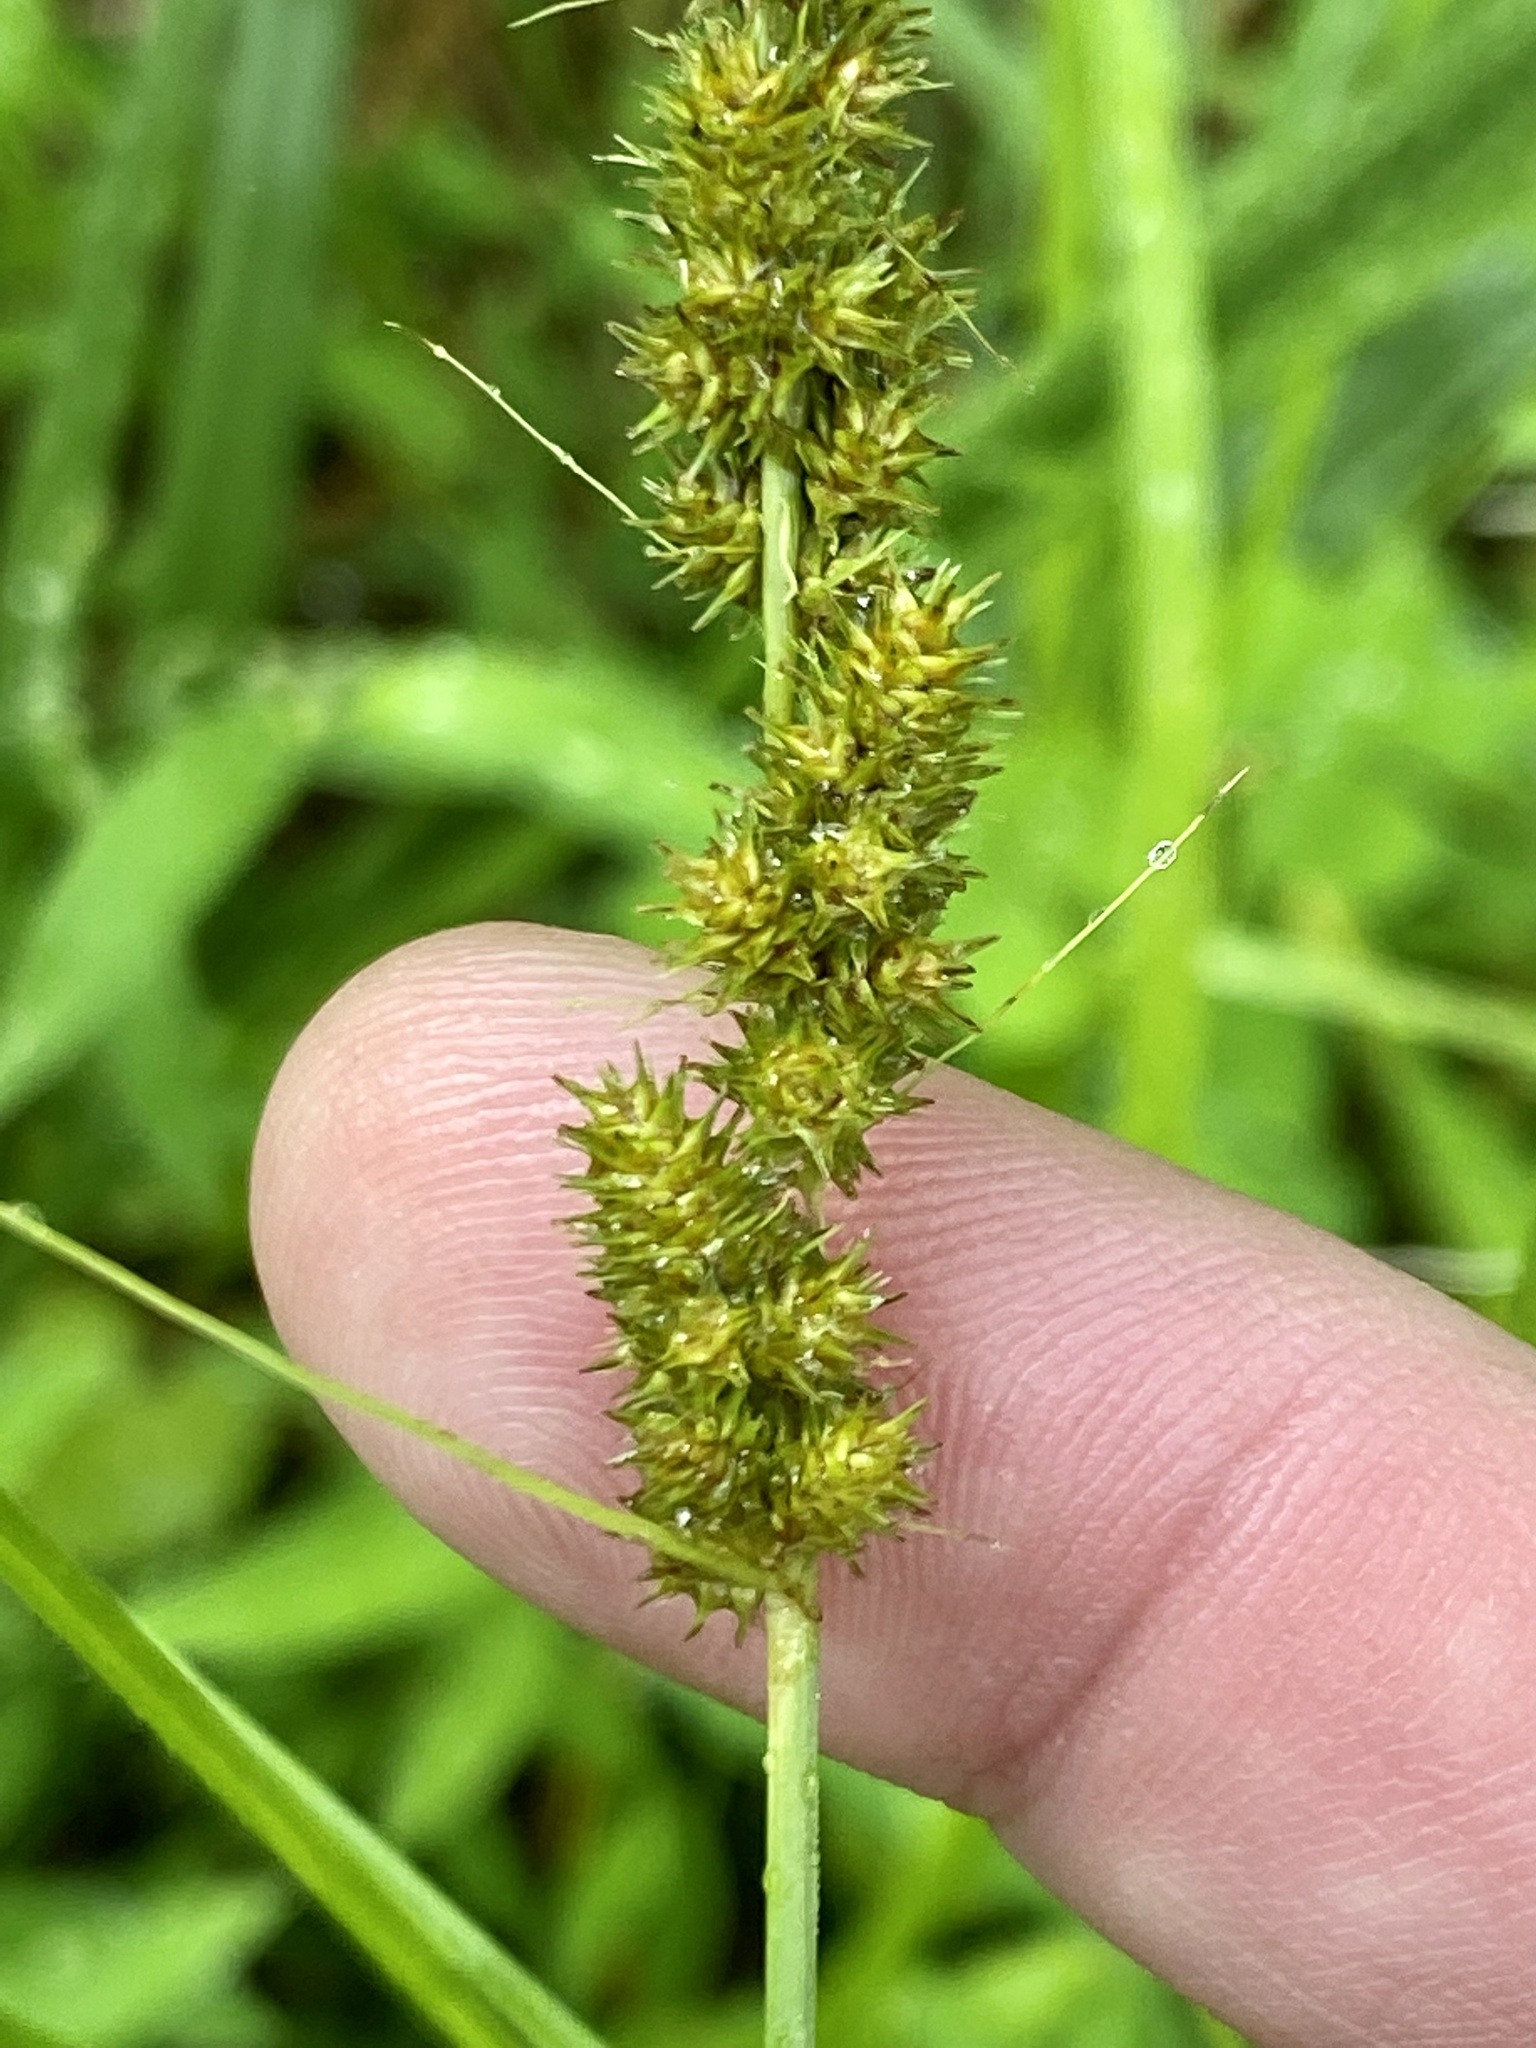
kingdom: Plantae
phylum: Tracheophyta
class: Liliopsida
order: Poales
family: Cyperaceae
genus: Carex
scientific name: Carex vulpinoidea
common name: American fox-sedge
